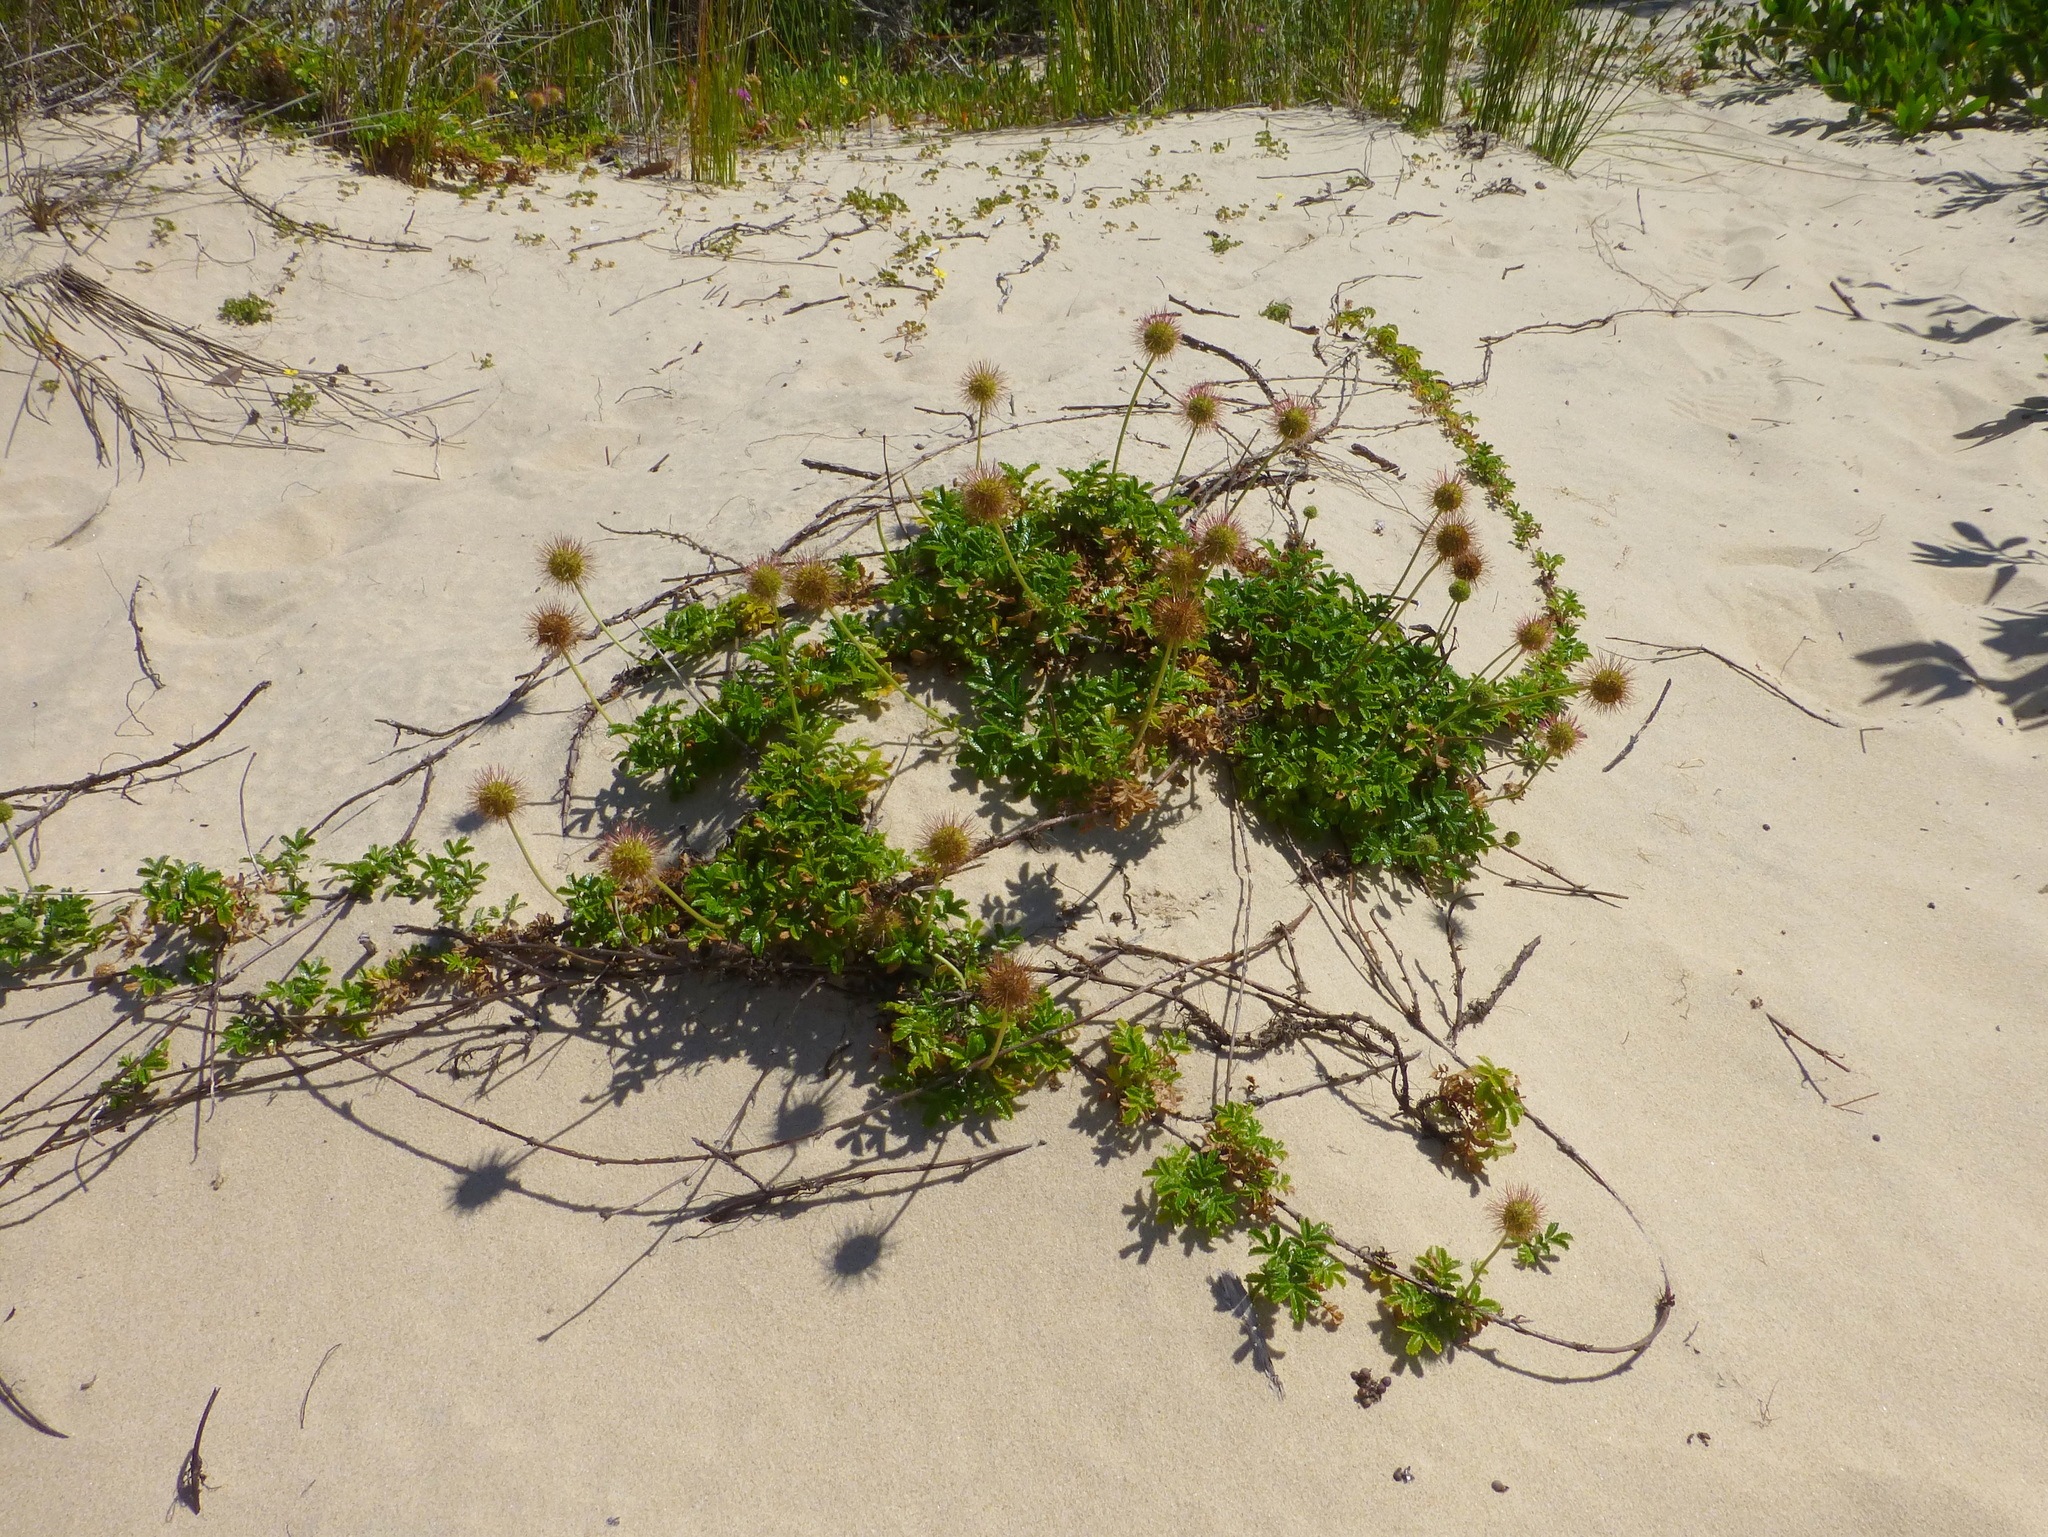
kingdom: Plantae
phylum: Tracheophyta
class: Magnoliopsida
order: Rosales
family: Rosaceae
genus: Acaena
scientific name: Acaena pallida
